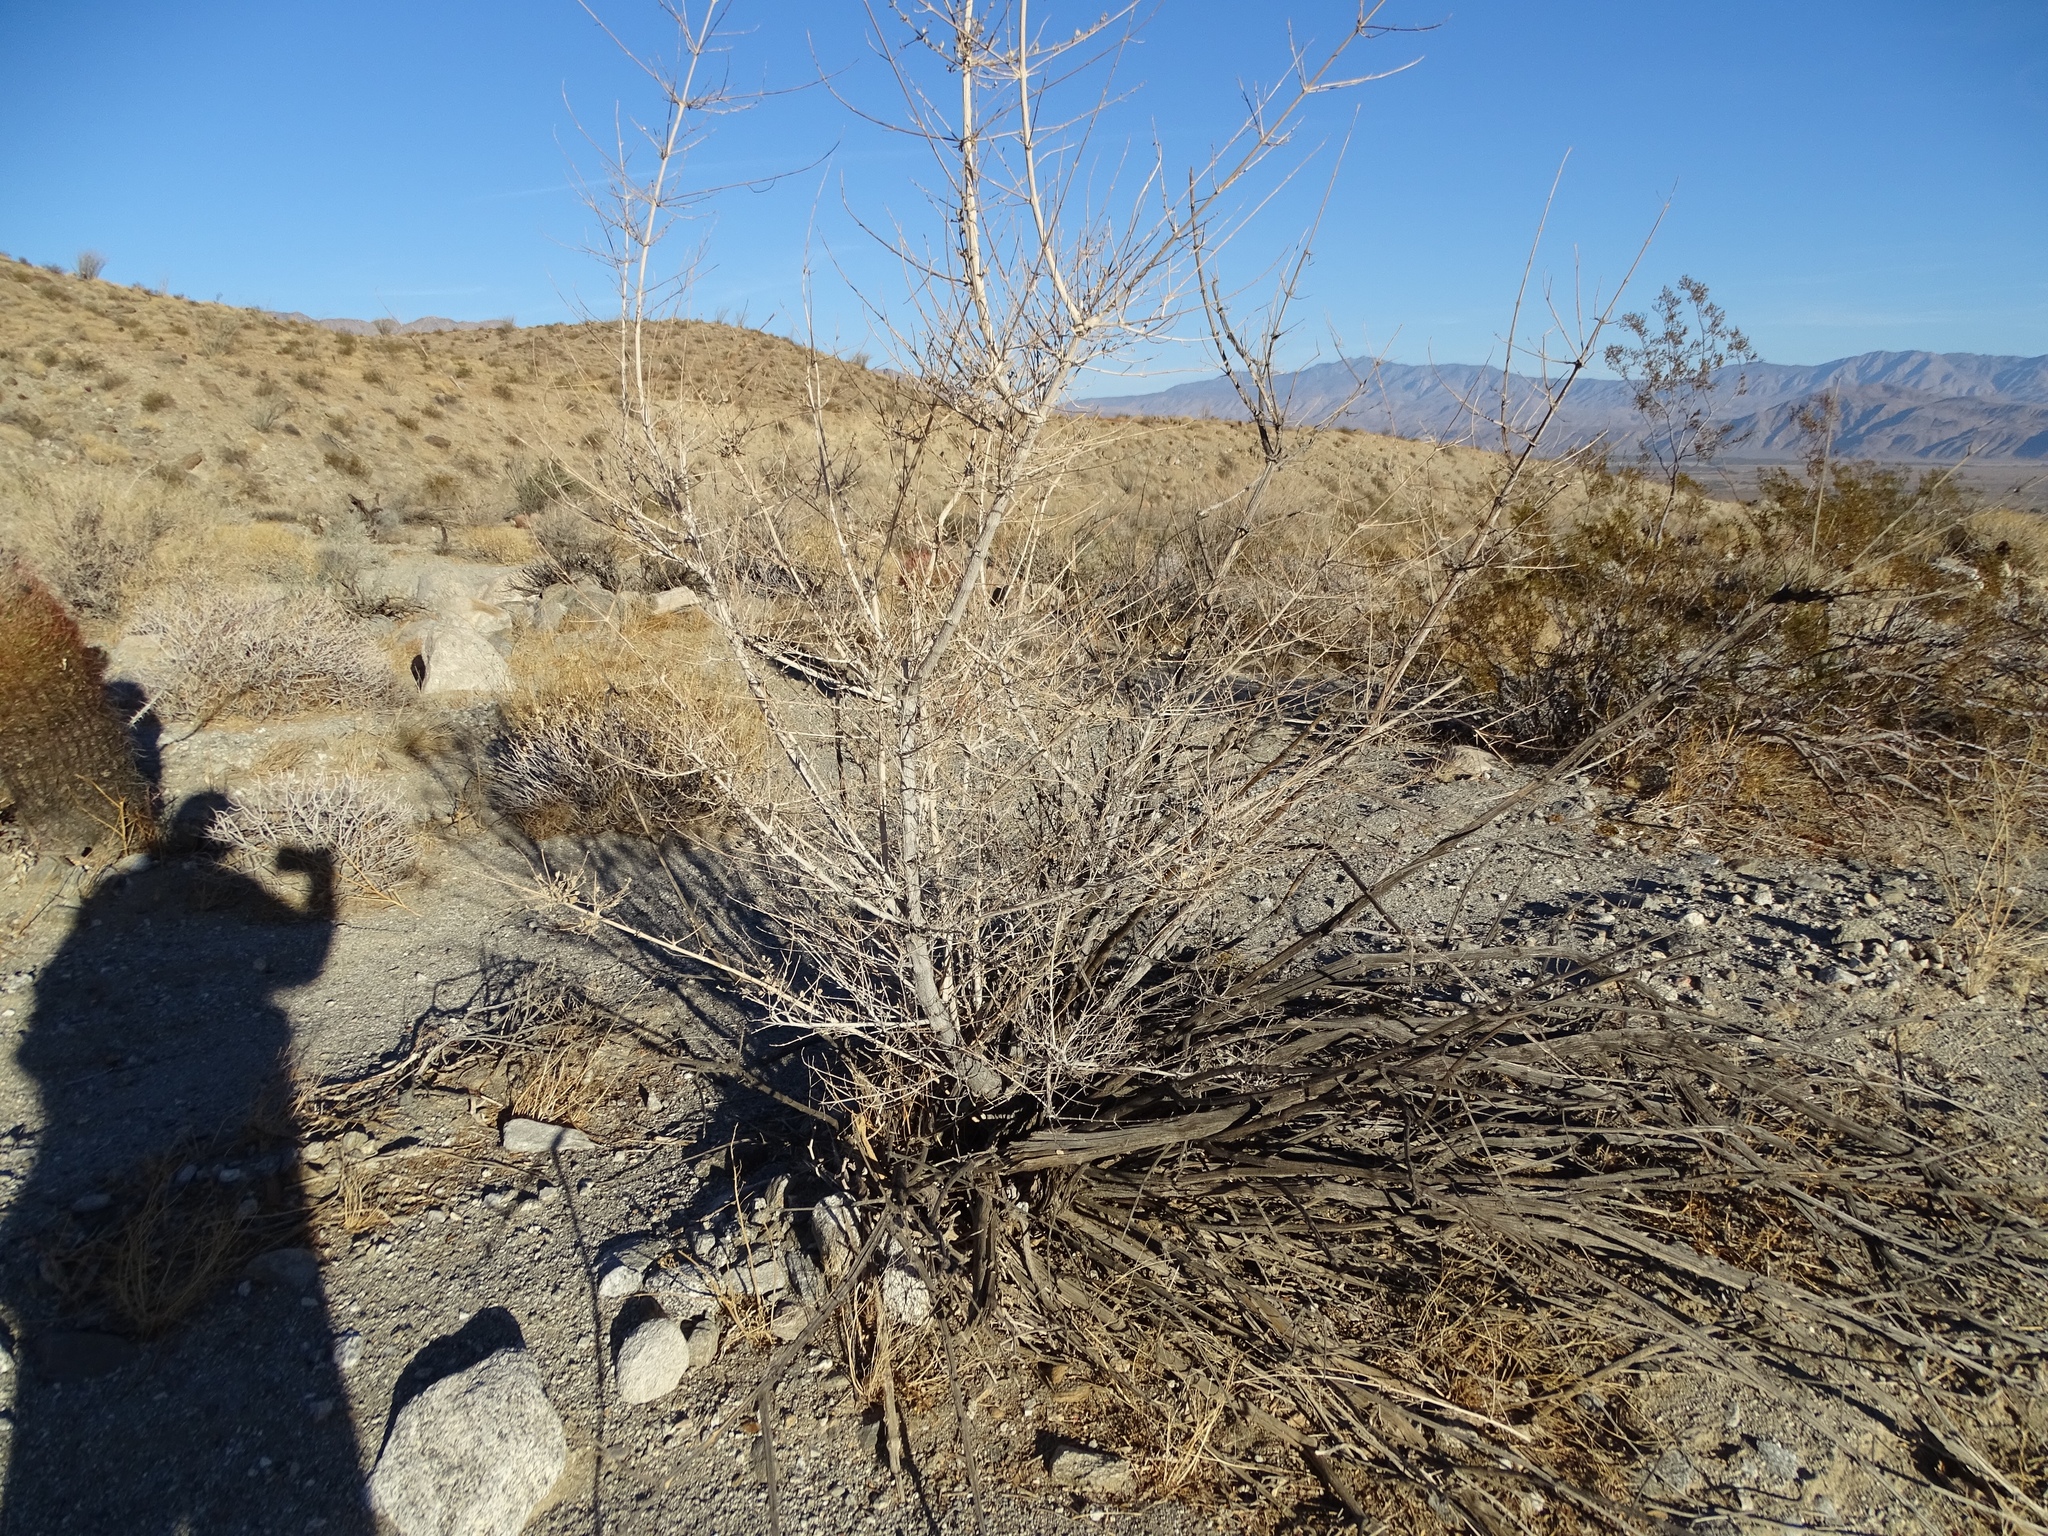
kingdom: Plantae
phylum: Tracheophyta
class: Magnoliopsida
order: Lamiales
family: Lamiaceae
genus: Condea
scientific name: Condea emoryi
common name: Chia
